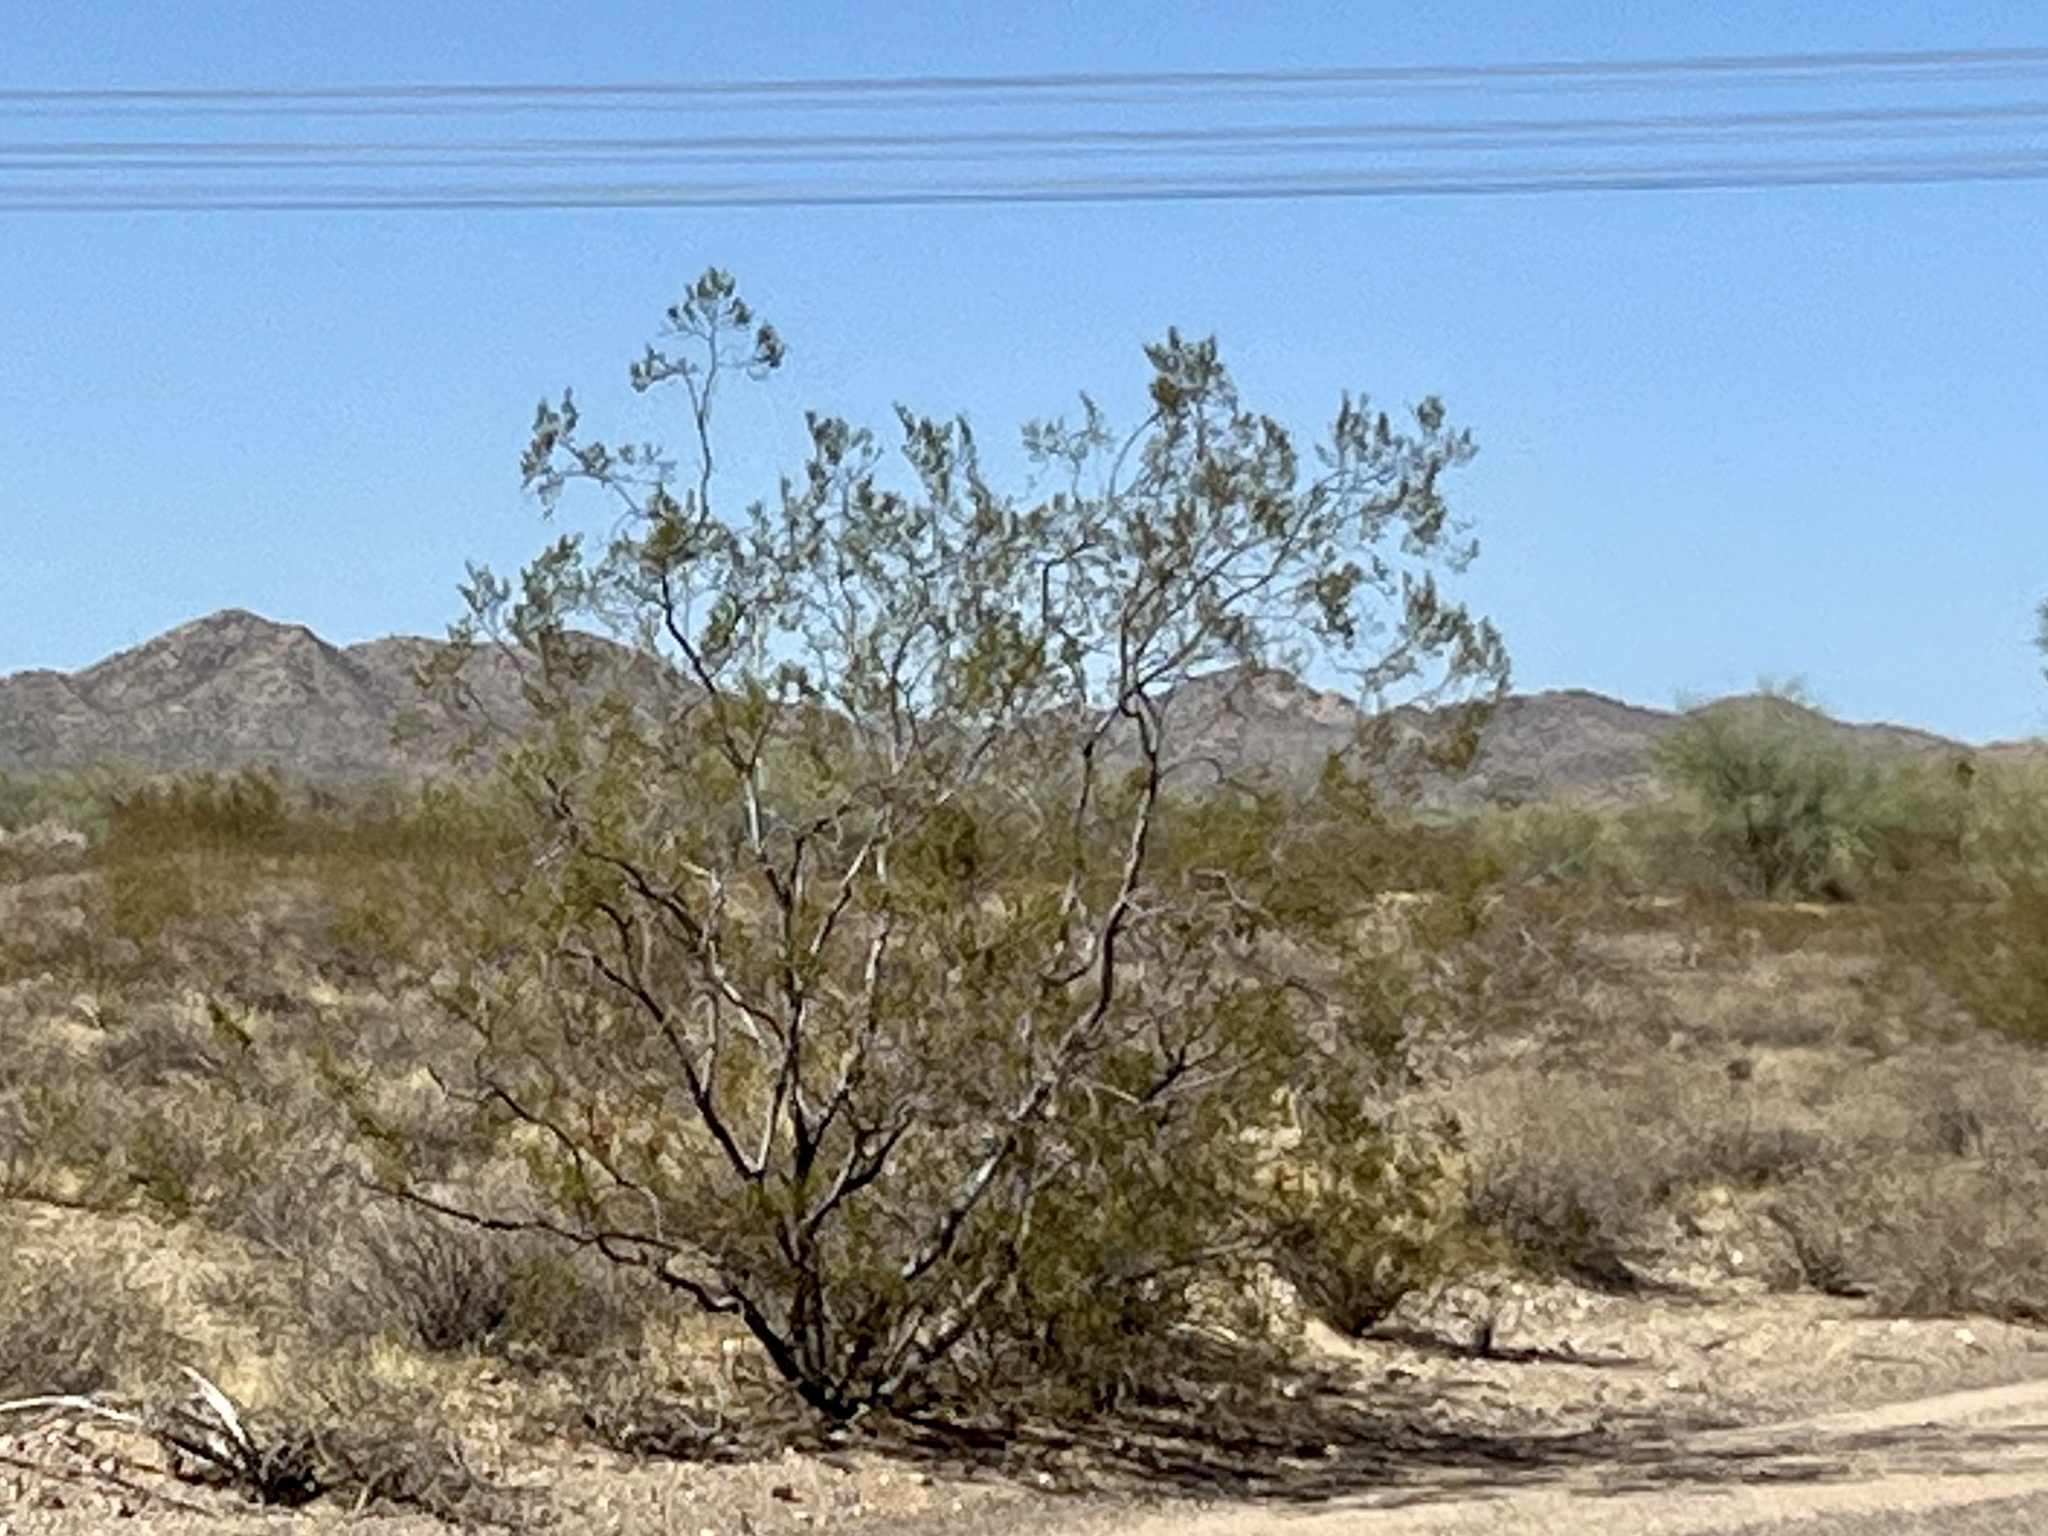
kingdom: Plantae
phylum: Tracheophyta
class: Magnoliopsida
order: Zygophyllales
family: Zygophyllaceae
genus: Larrea
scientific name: Larrea tridentata
